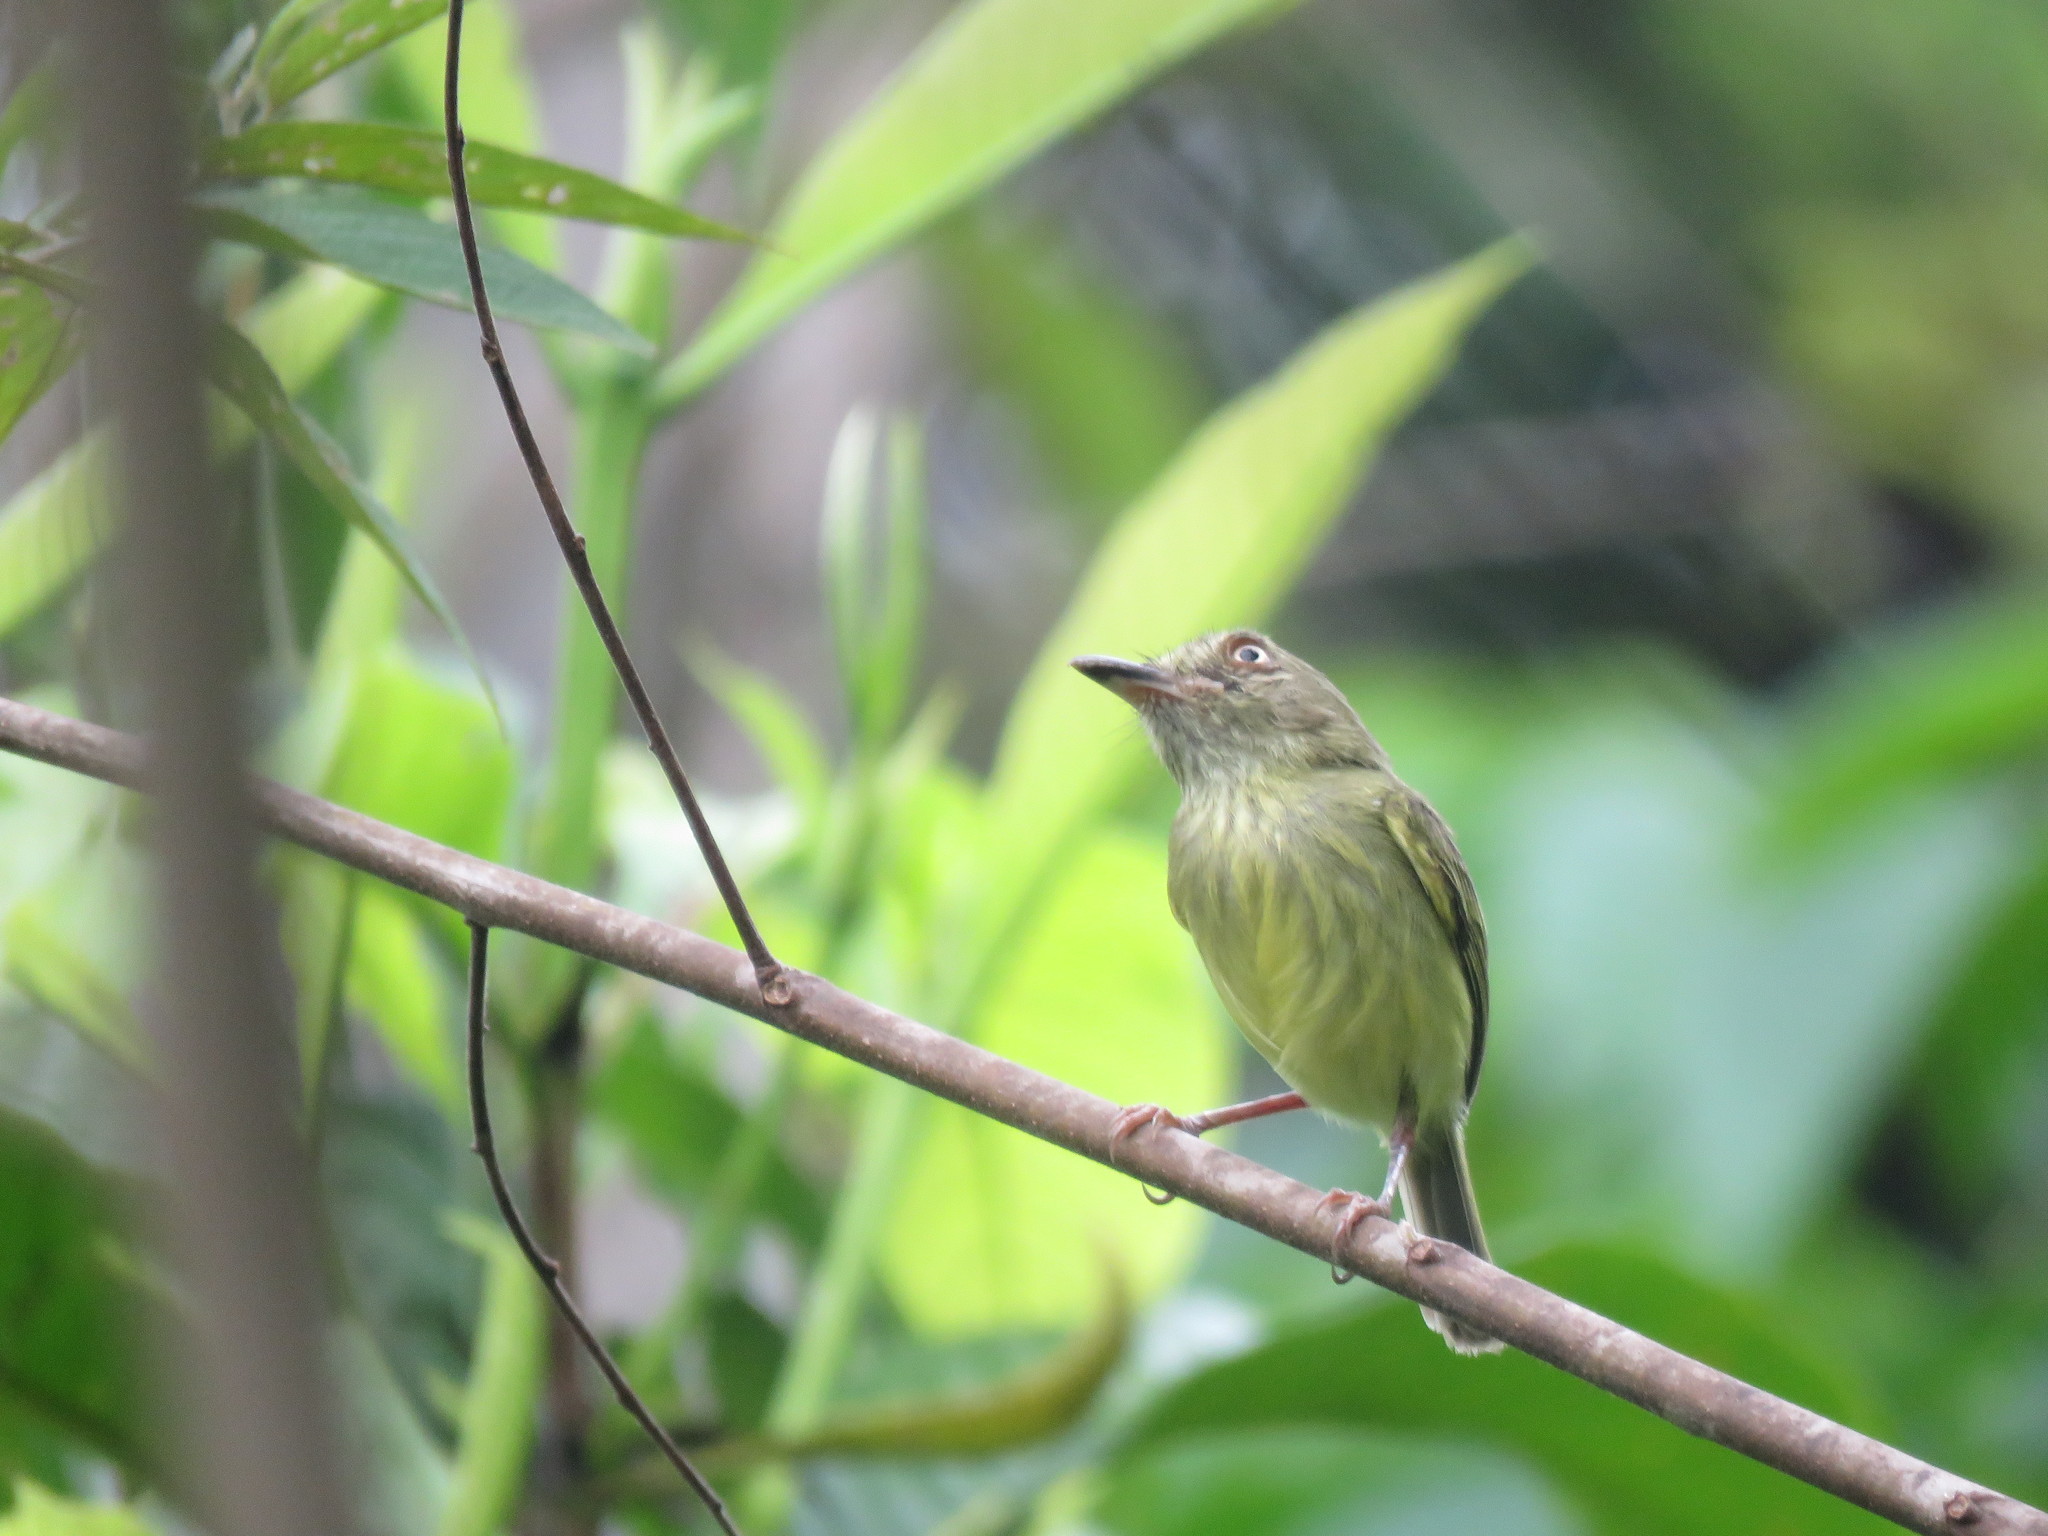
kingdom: Animalia
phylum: Chordata
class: Aves
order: Passeriformes
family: Tyrannidae
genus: Hemitriccus
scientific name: Hemitriccus margaritaceiventer
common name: Pearly-vented tody-tyrant
